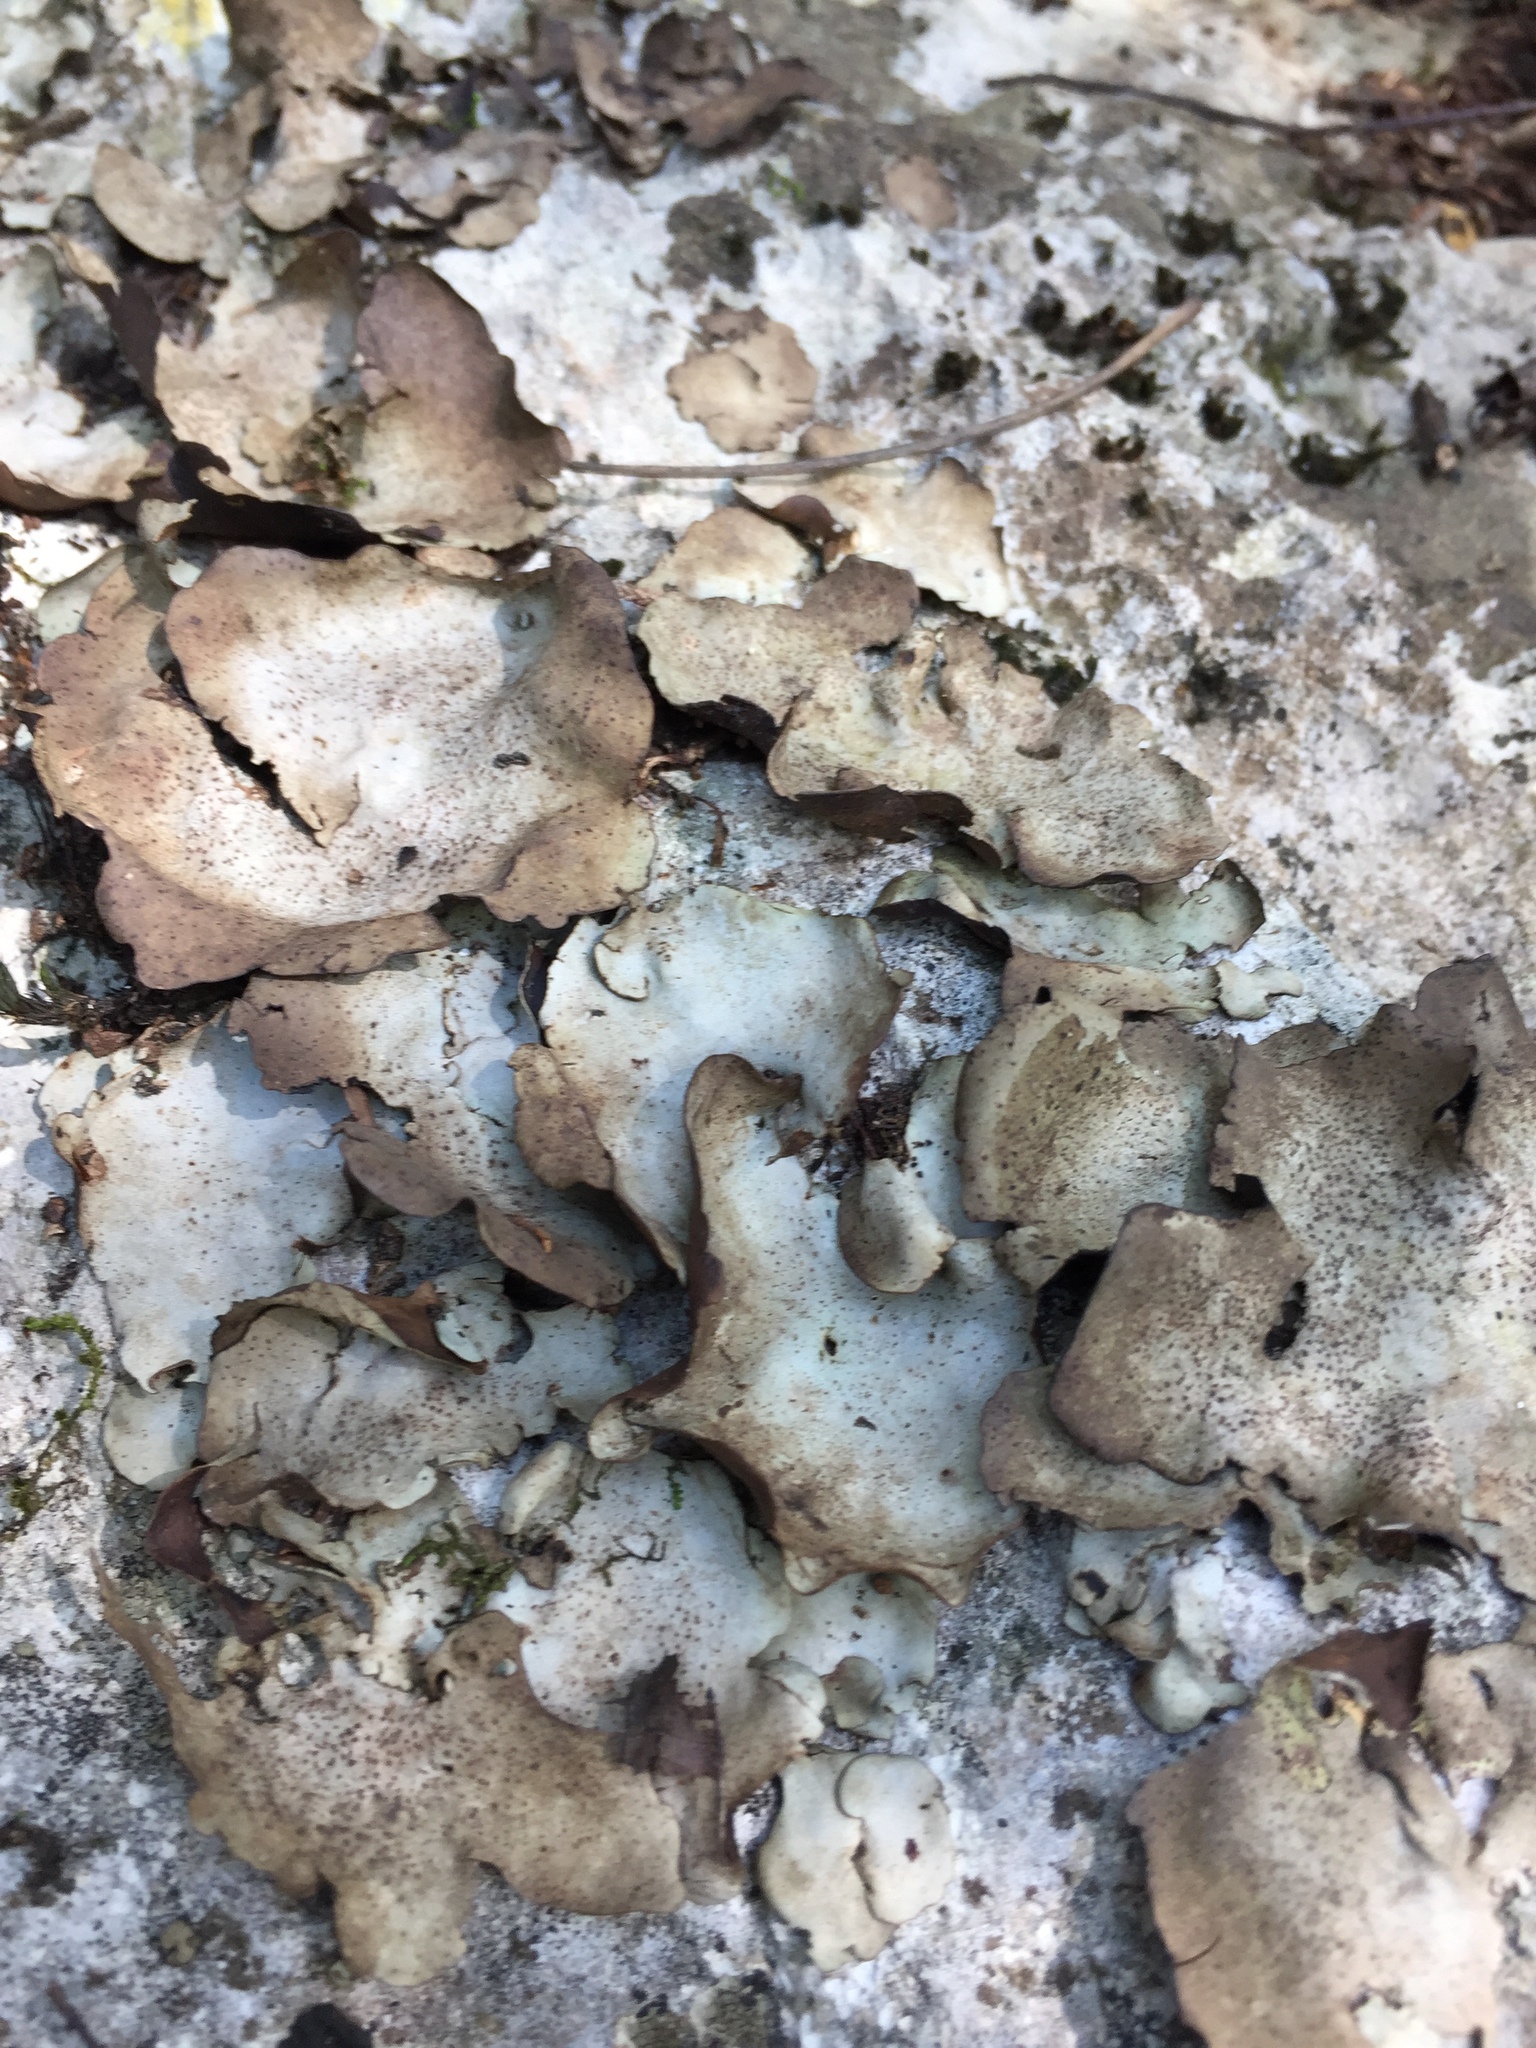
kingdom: Fungi
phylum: Ascomycota
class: Eurotiomycetes
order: Verrucariales
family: Verrucariaceae
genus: Dermatocarpon
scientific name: Dermatocarpon muhlenbergii
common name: Muhlenberg's stippleback lichen
